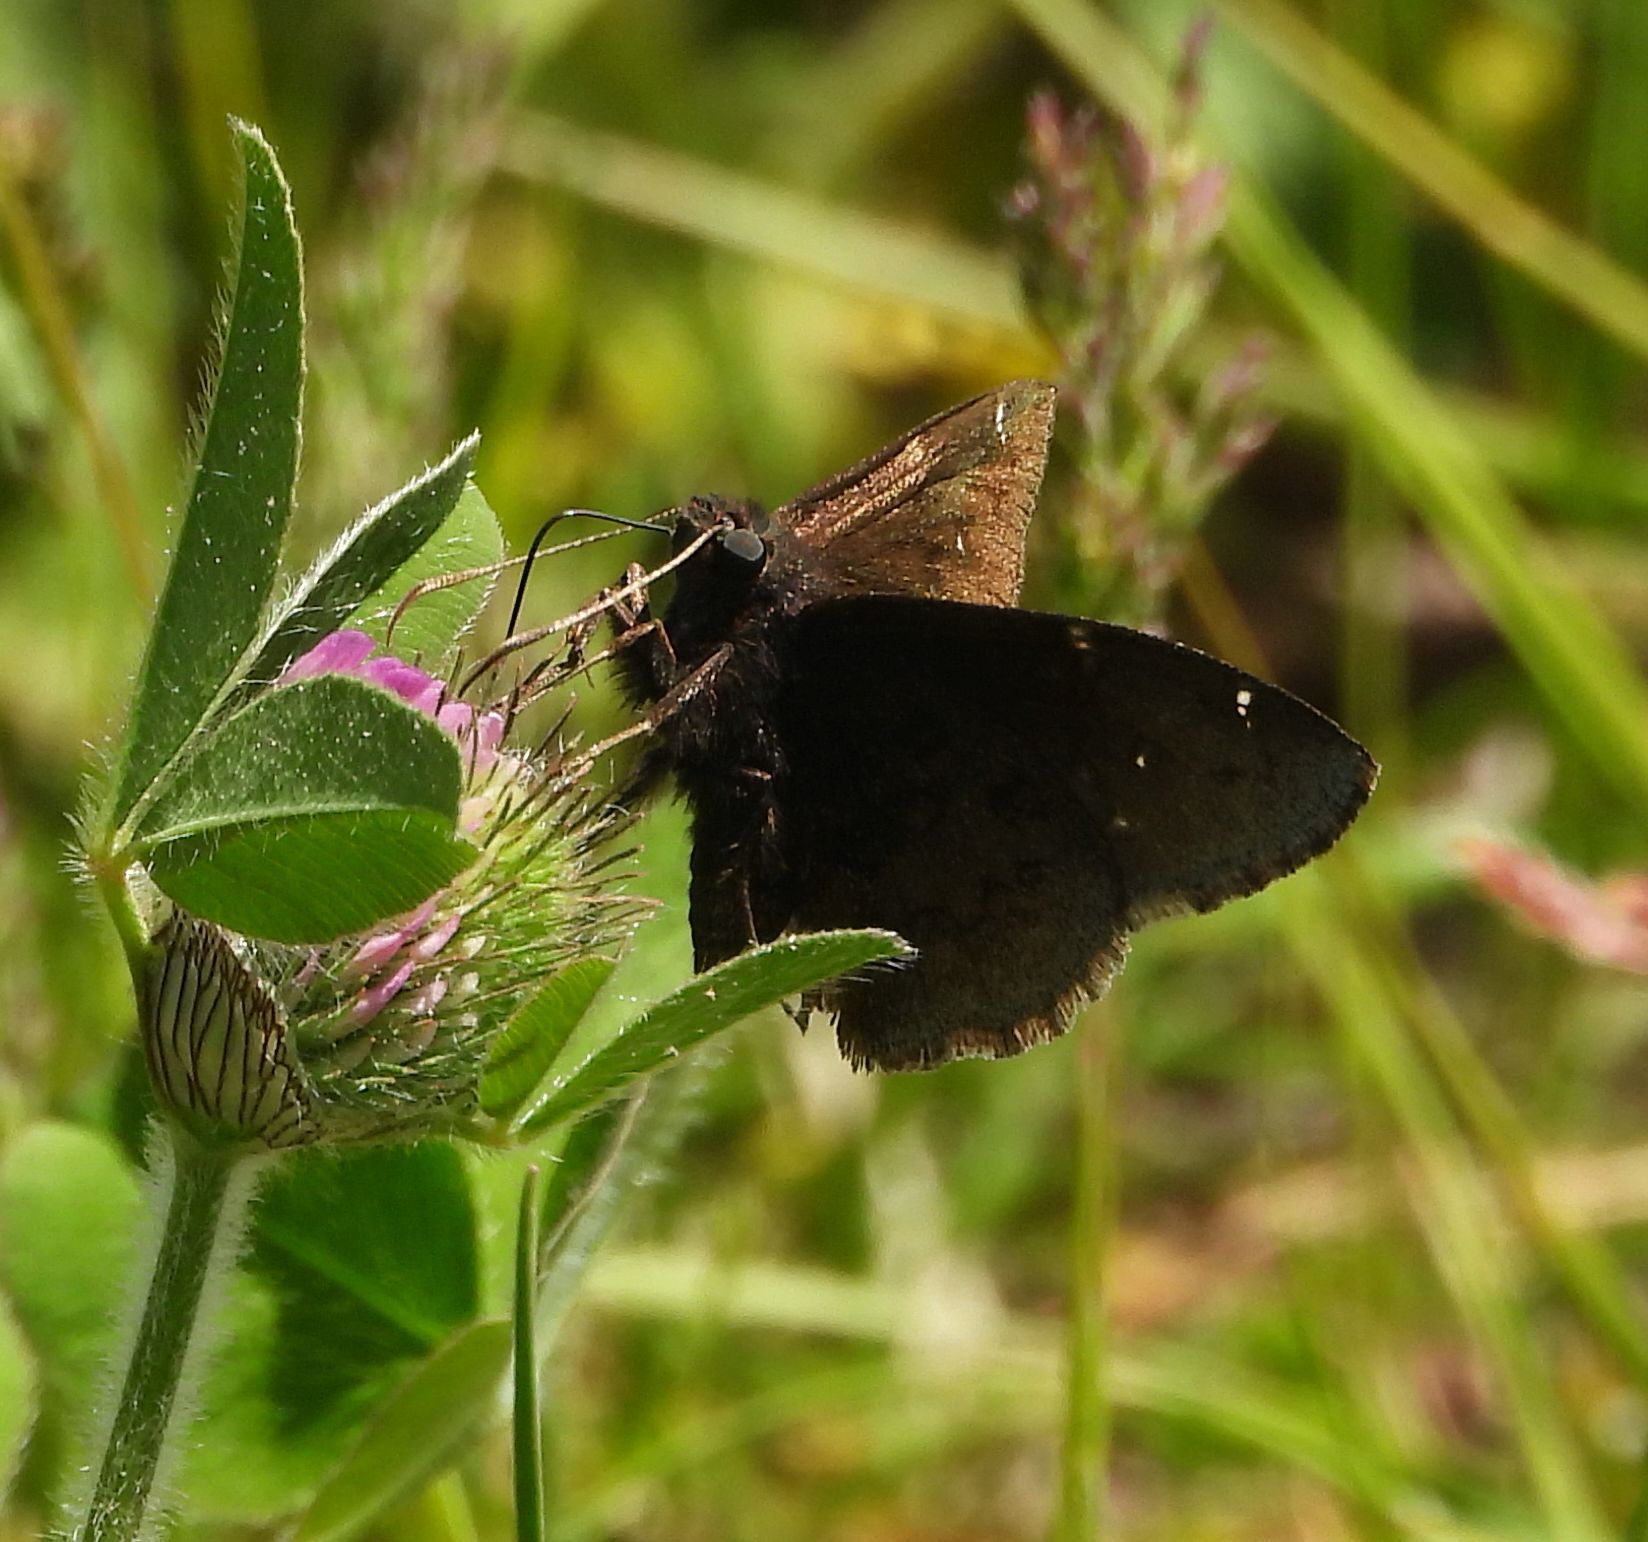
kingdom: Animalia
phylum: Arthropoda
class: Insecta
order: Lepidoptera
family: Hesperiidae
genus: Thorybes
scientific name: Thorybes pylades
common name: Northern cloudywing
